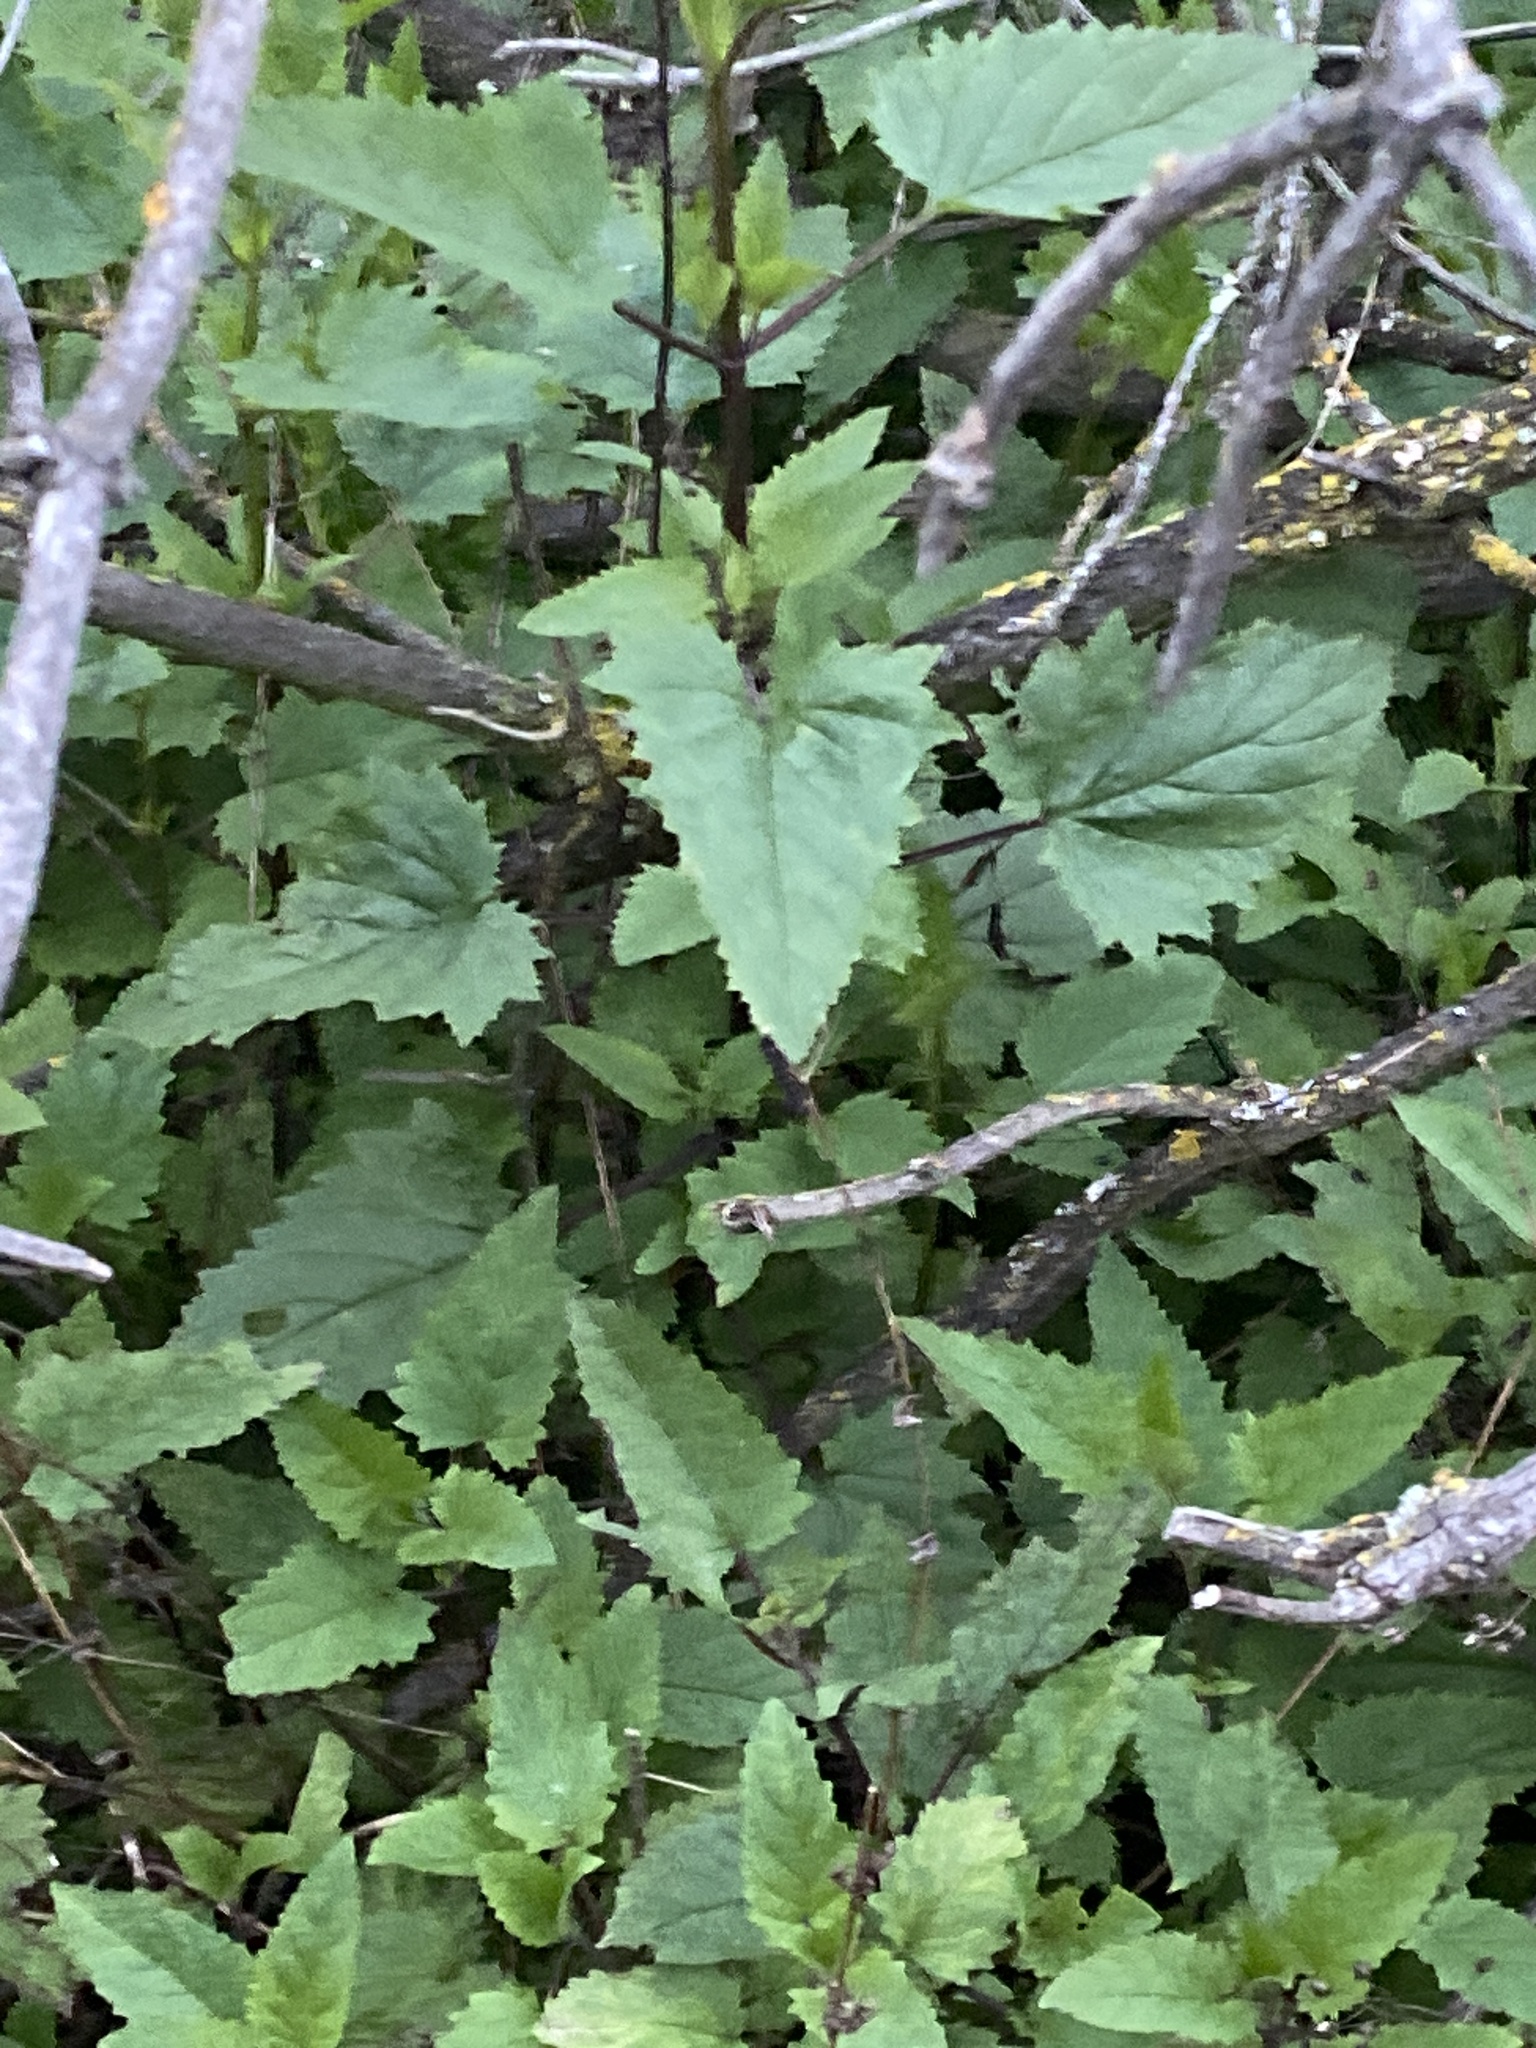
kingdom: Plantae
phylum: Tracheophyta
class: Magnoliopsida
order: Lamiales
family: Scrophulariaceae
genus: Scrophularia
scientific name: Scrophularia californica
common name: California figwort
